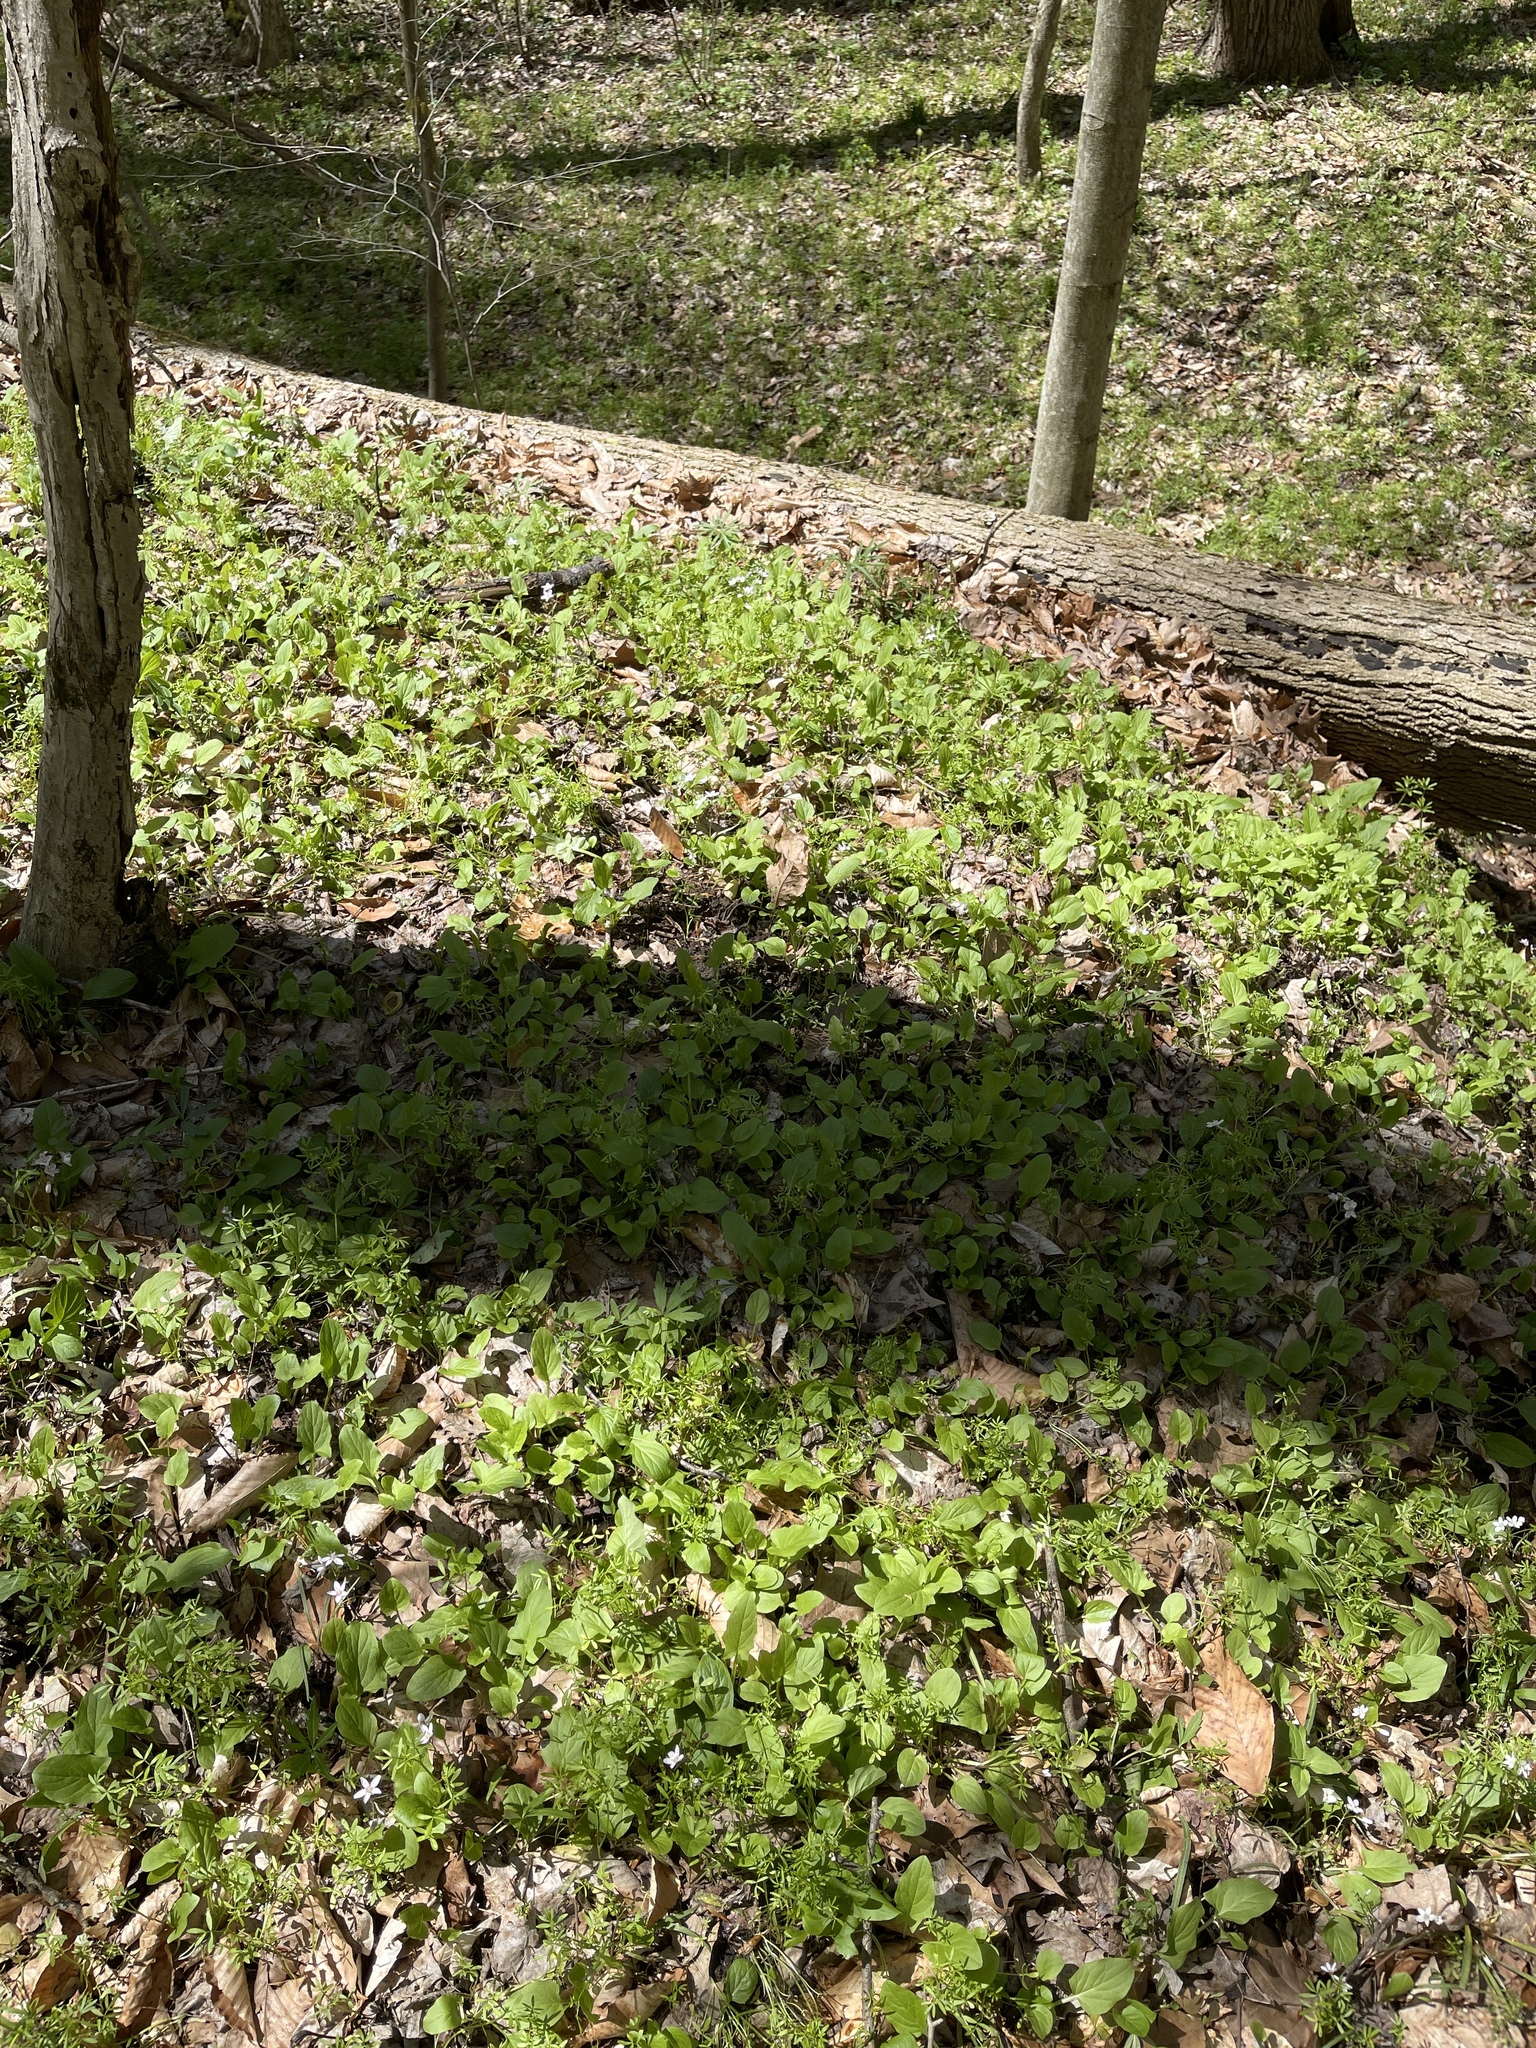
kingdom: Plantae
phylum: Tracheophyta
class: Magnoliopsida
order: Asterales
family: Asteraceae
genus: Nabalus
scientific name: Nabalus crepidineus
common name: Nodding rattlesnakeroot
